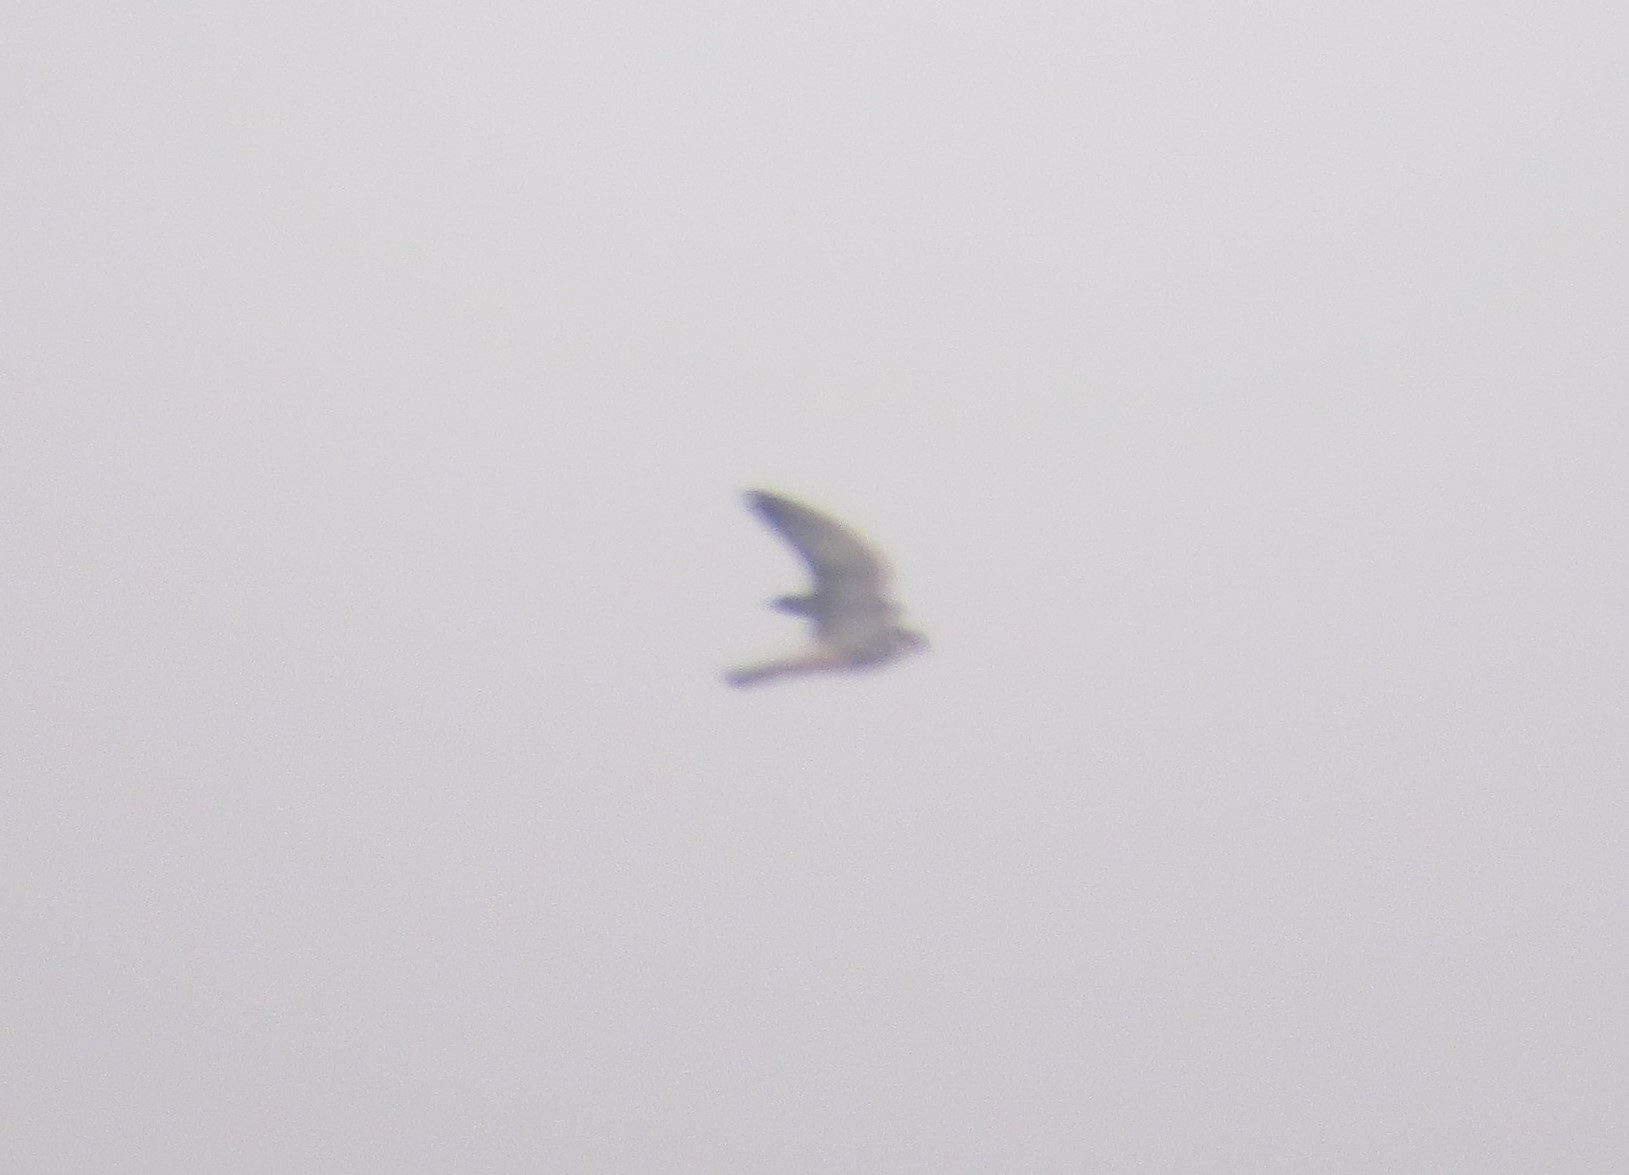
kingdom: Animalia
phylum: Chordata
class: Aves
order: Falconiformes
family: Falconidae
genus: Falco
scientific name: Falco subbuteo
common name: Eurasian hobby
